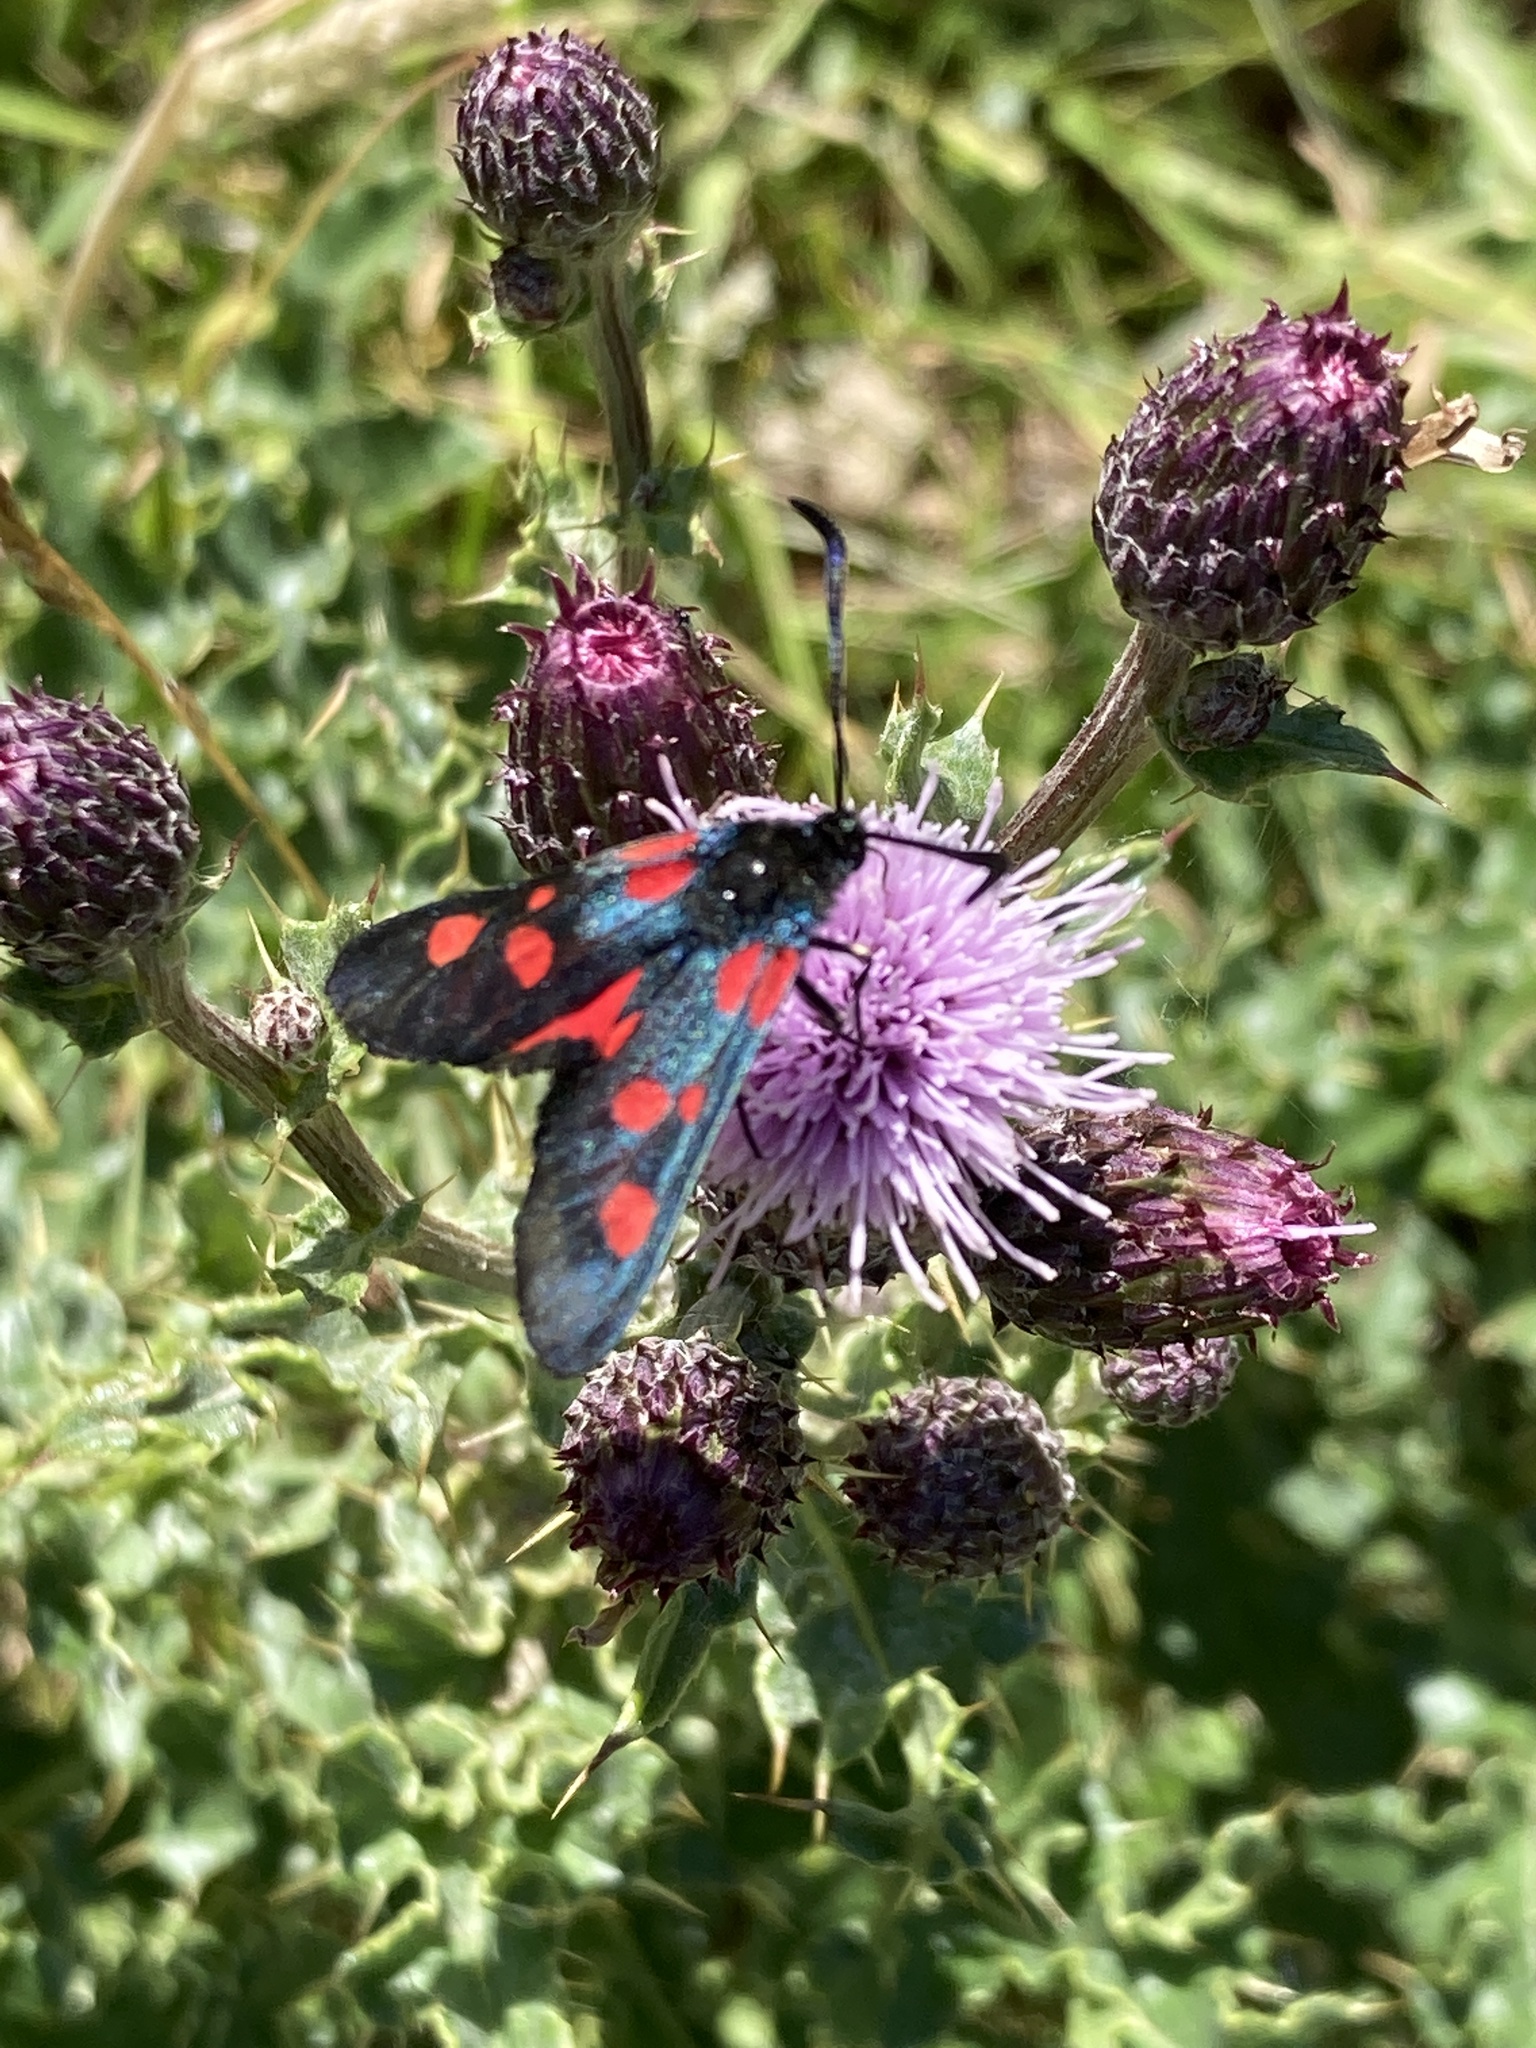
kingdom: Animalia
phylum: Arthropoda
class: Insecta
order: Lepidoptera
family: Zygaenidae
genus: Zygaena
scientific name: Zygaena lonicerae
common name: Narrow-bordered five-spot burnet
